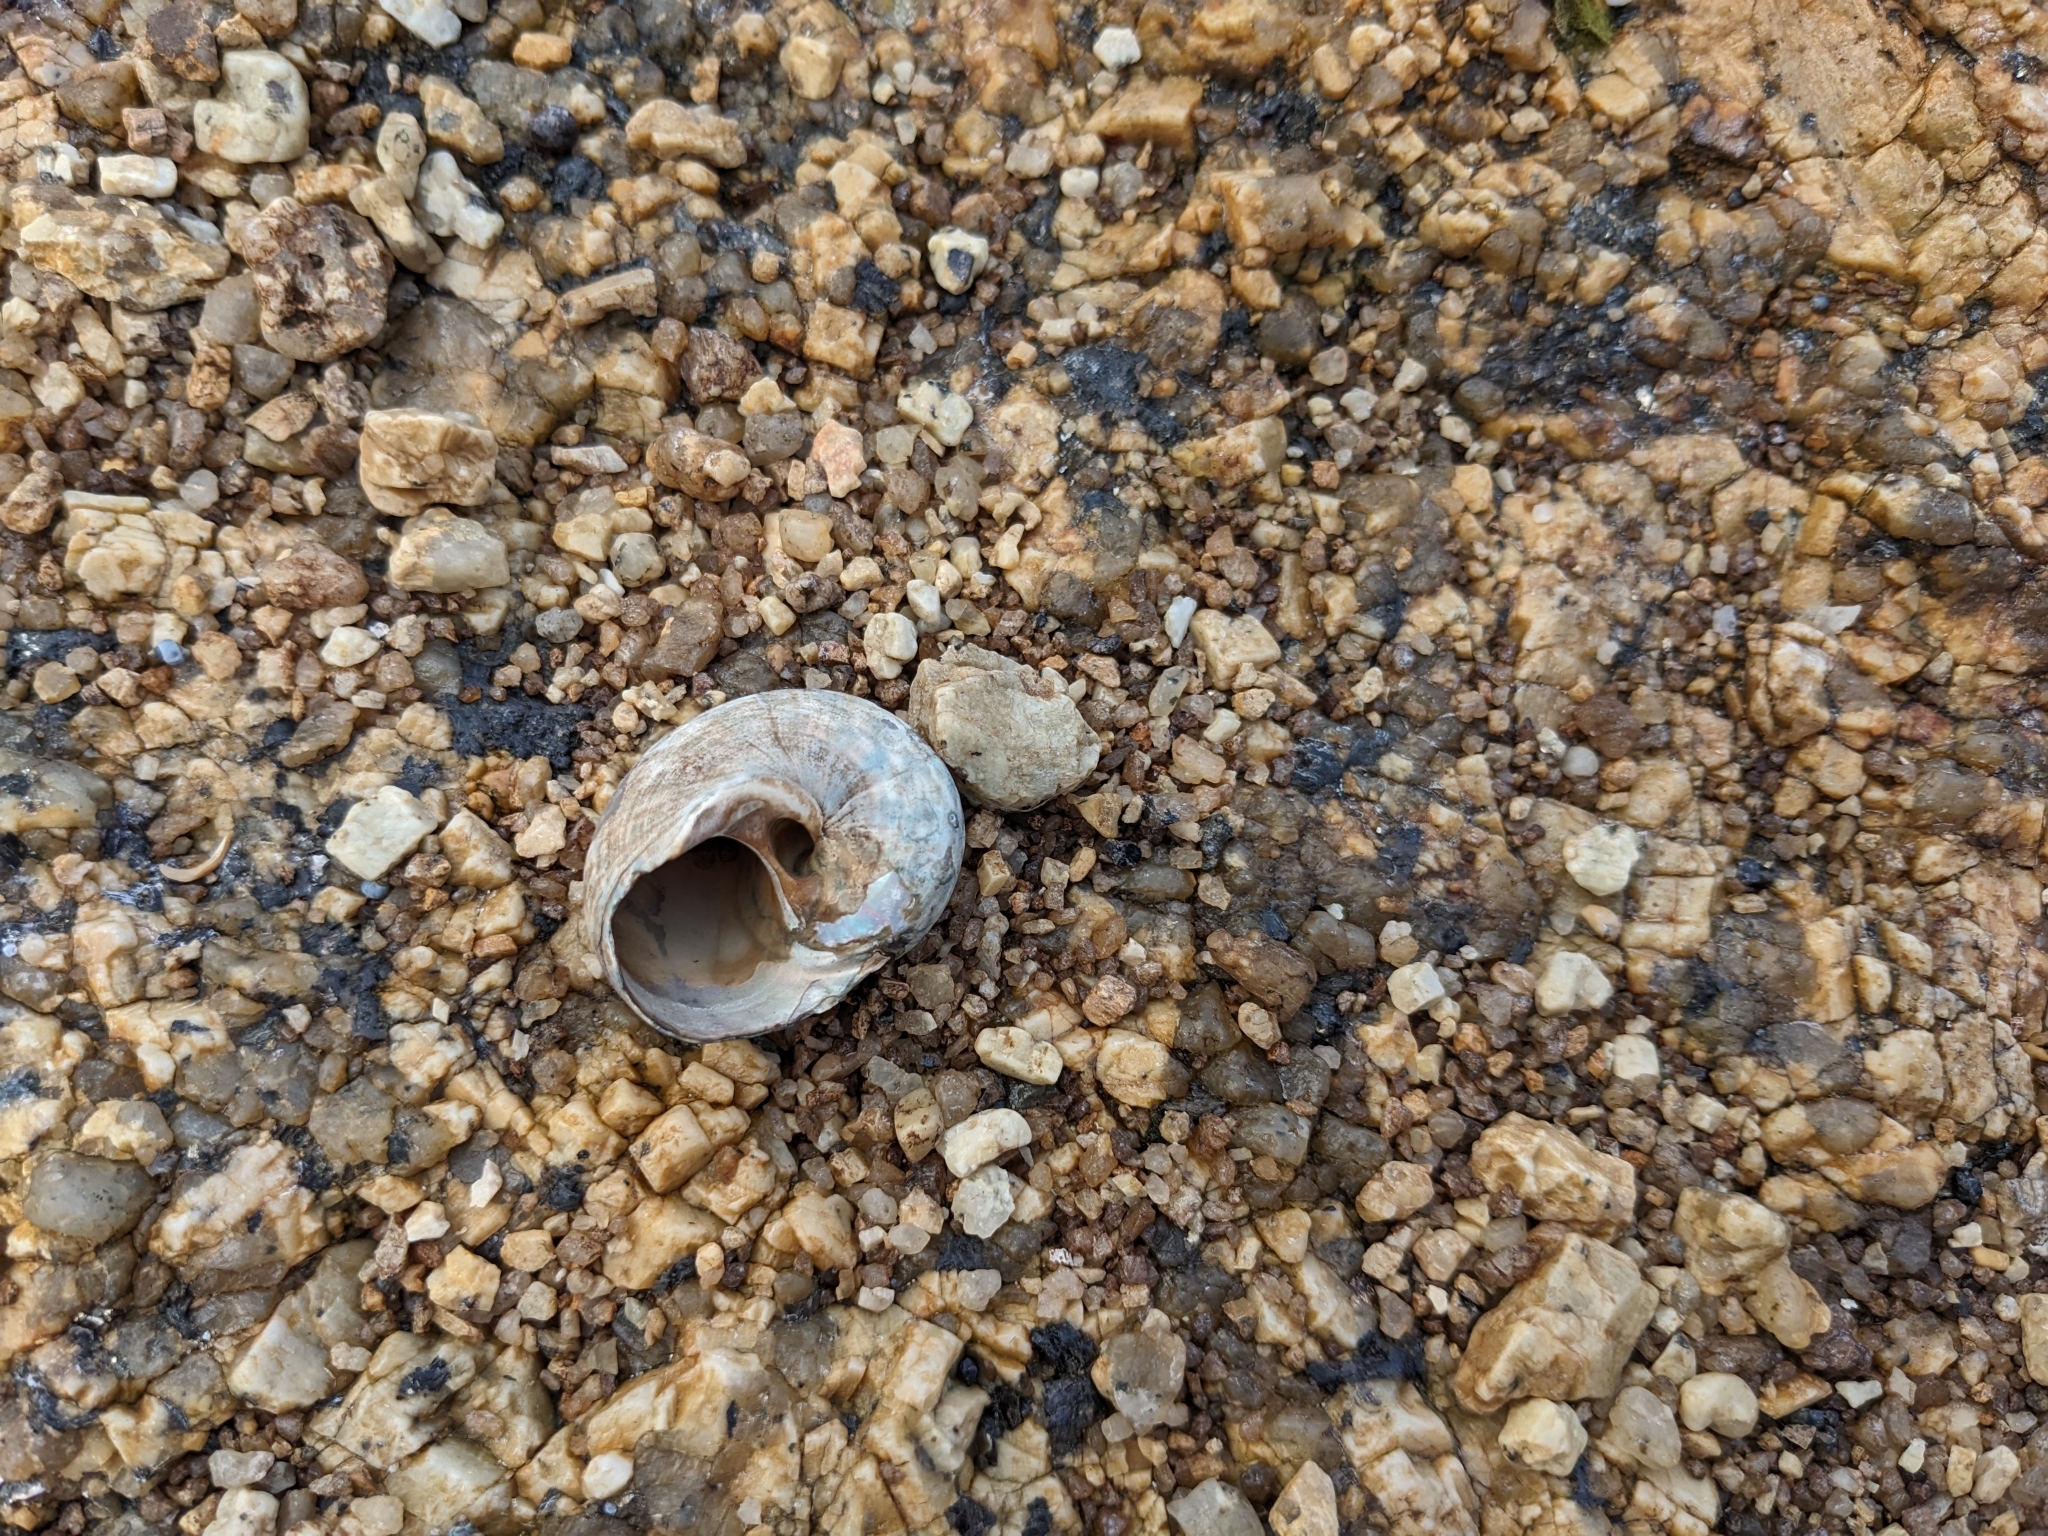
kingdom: Animalia
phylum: Mollusca
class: Gastropoda
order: Trochida
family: Turbinidae
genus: Lunella
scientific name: Lunella undulata
